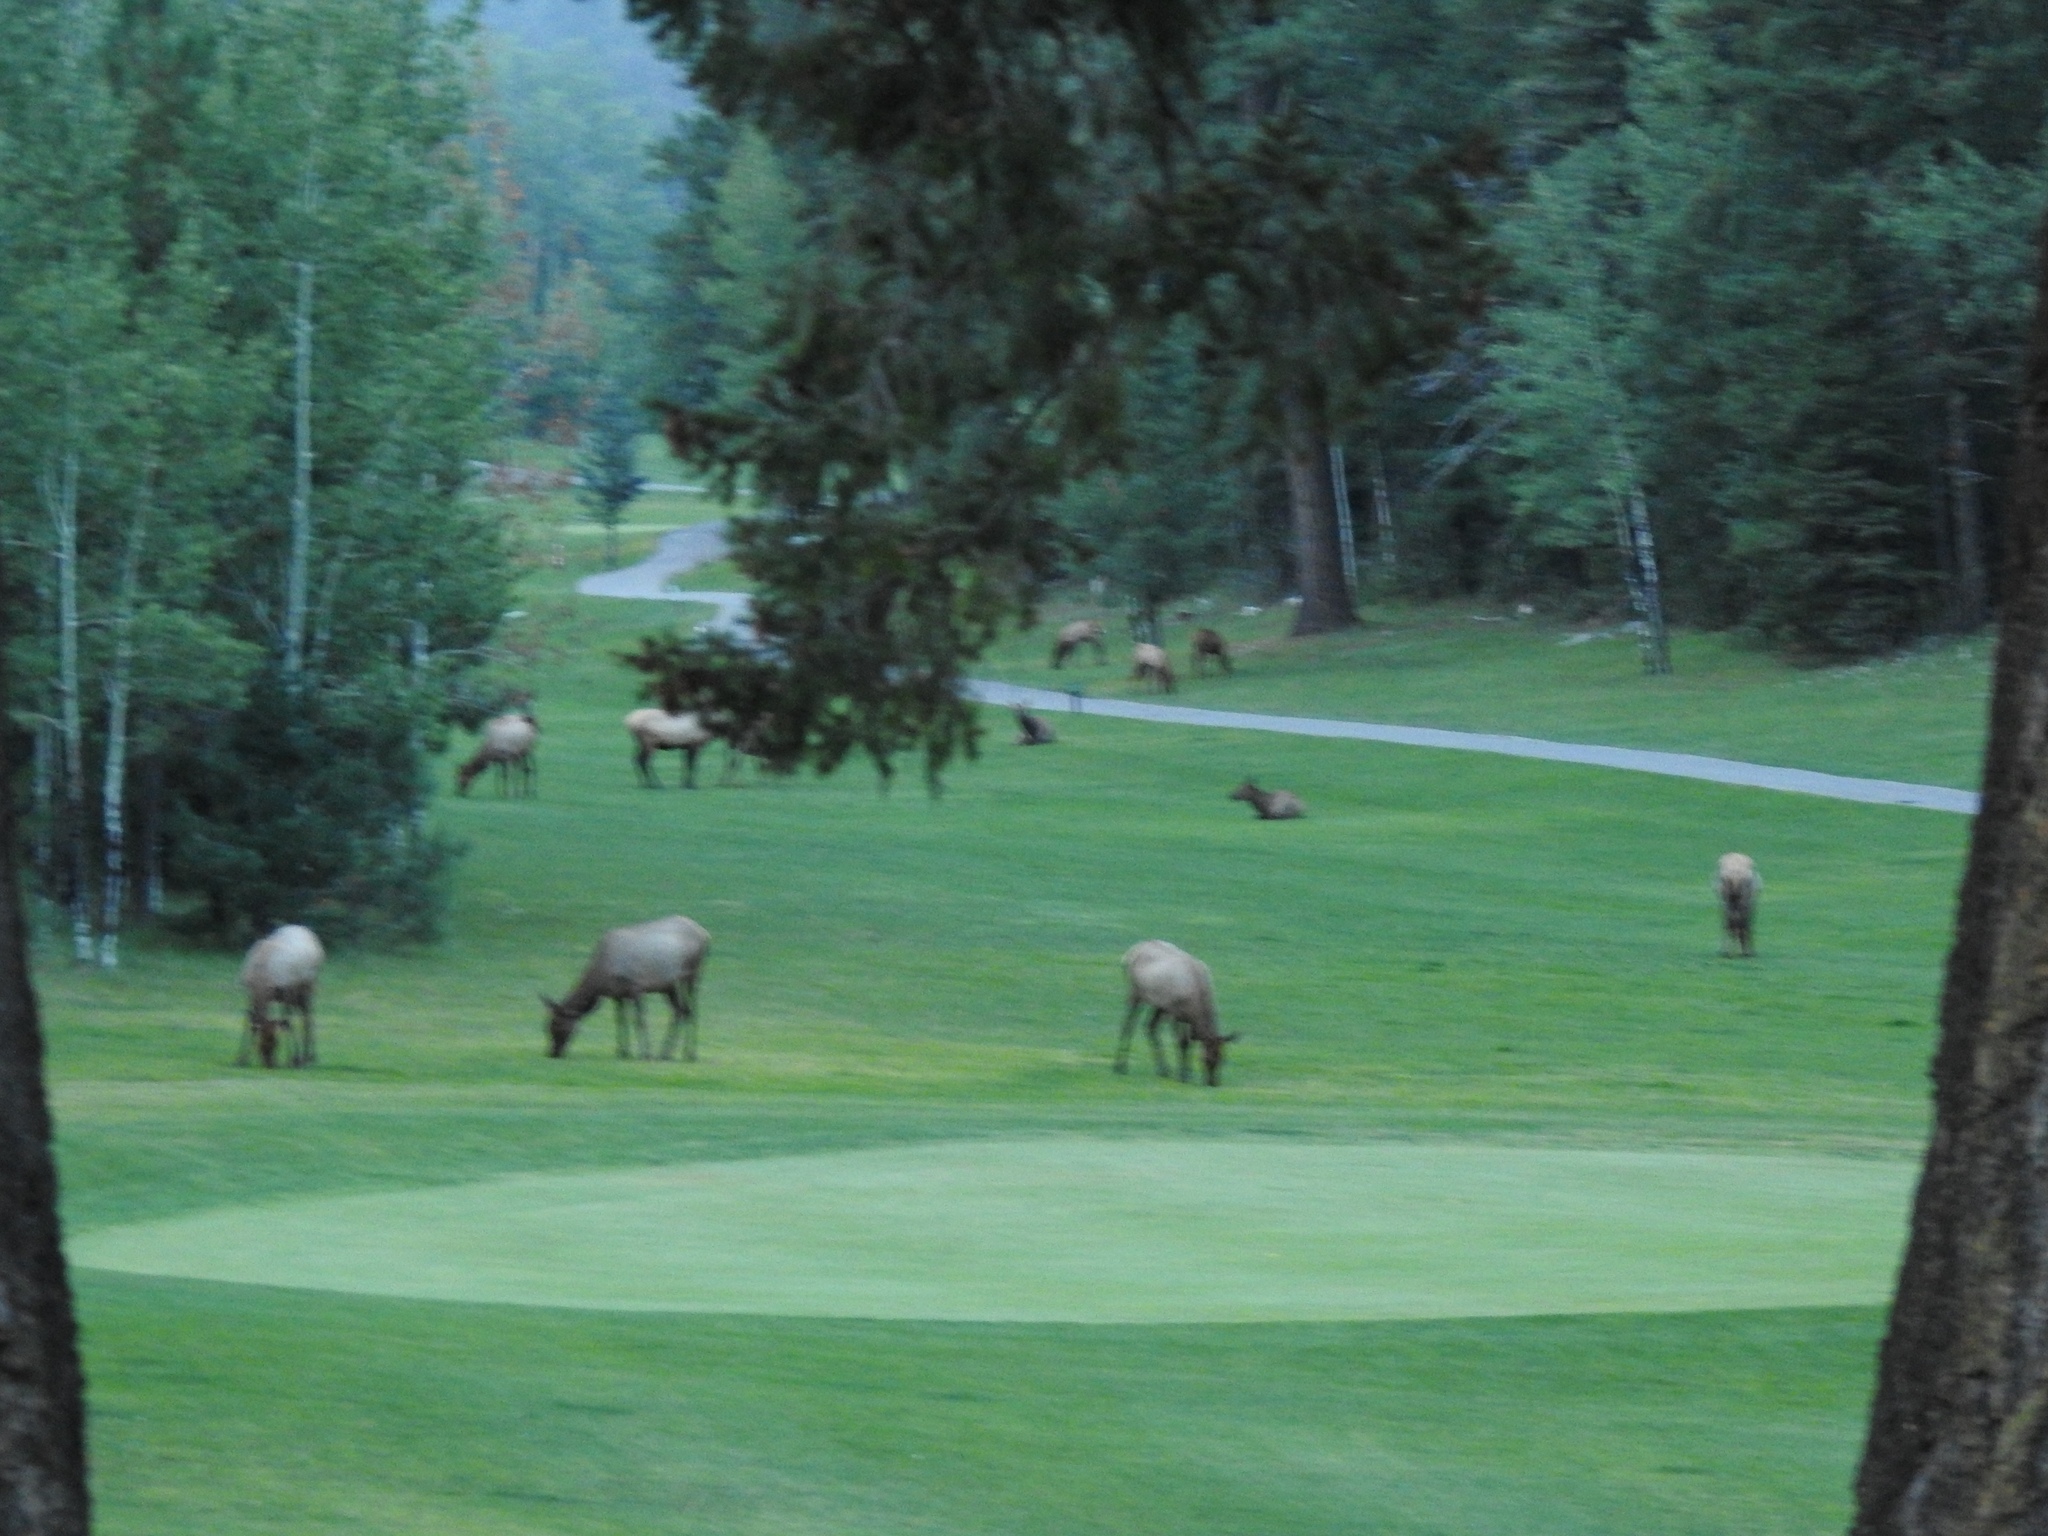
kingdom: Animalia
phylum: Chordata
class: Mammalia
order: Artiodactyla
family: Cervidae
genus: Cervus
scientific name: Cervus elaphus
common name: Red deer
